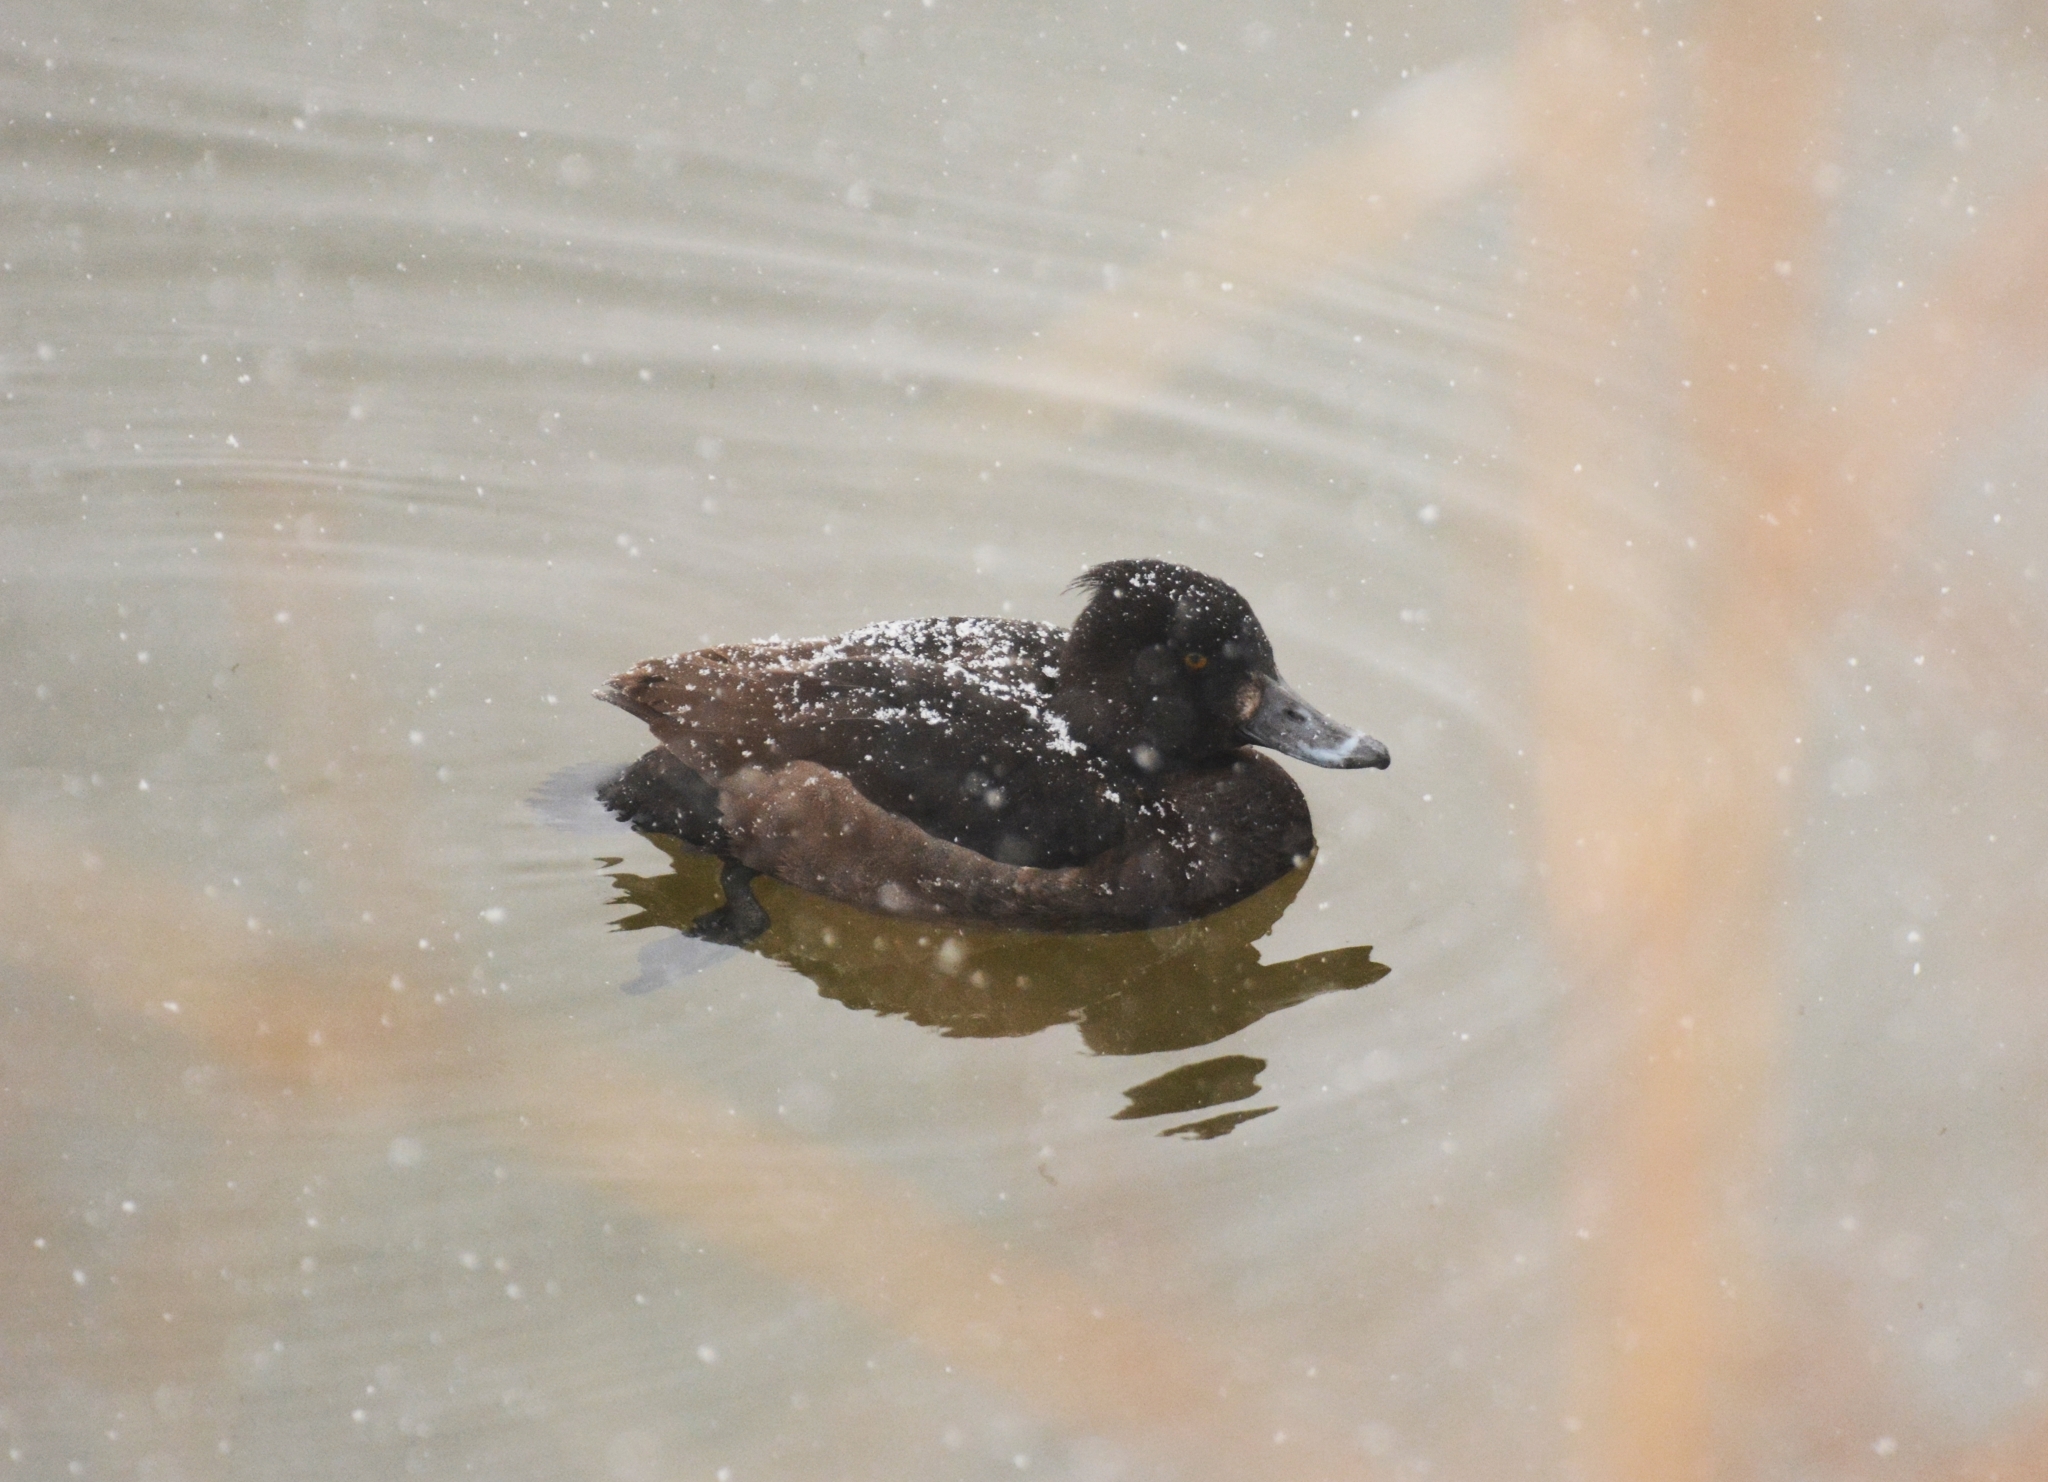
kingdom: Animalia
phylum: Chordata
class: Aves
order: Anseriformes
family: Anatidae
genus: Aythya
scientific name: Aythya fuligula
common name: Tufted duck
